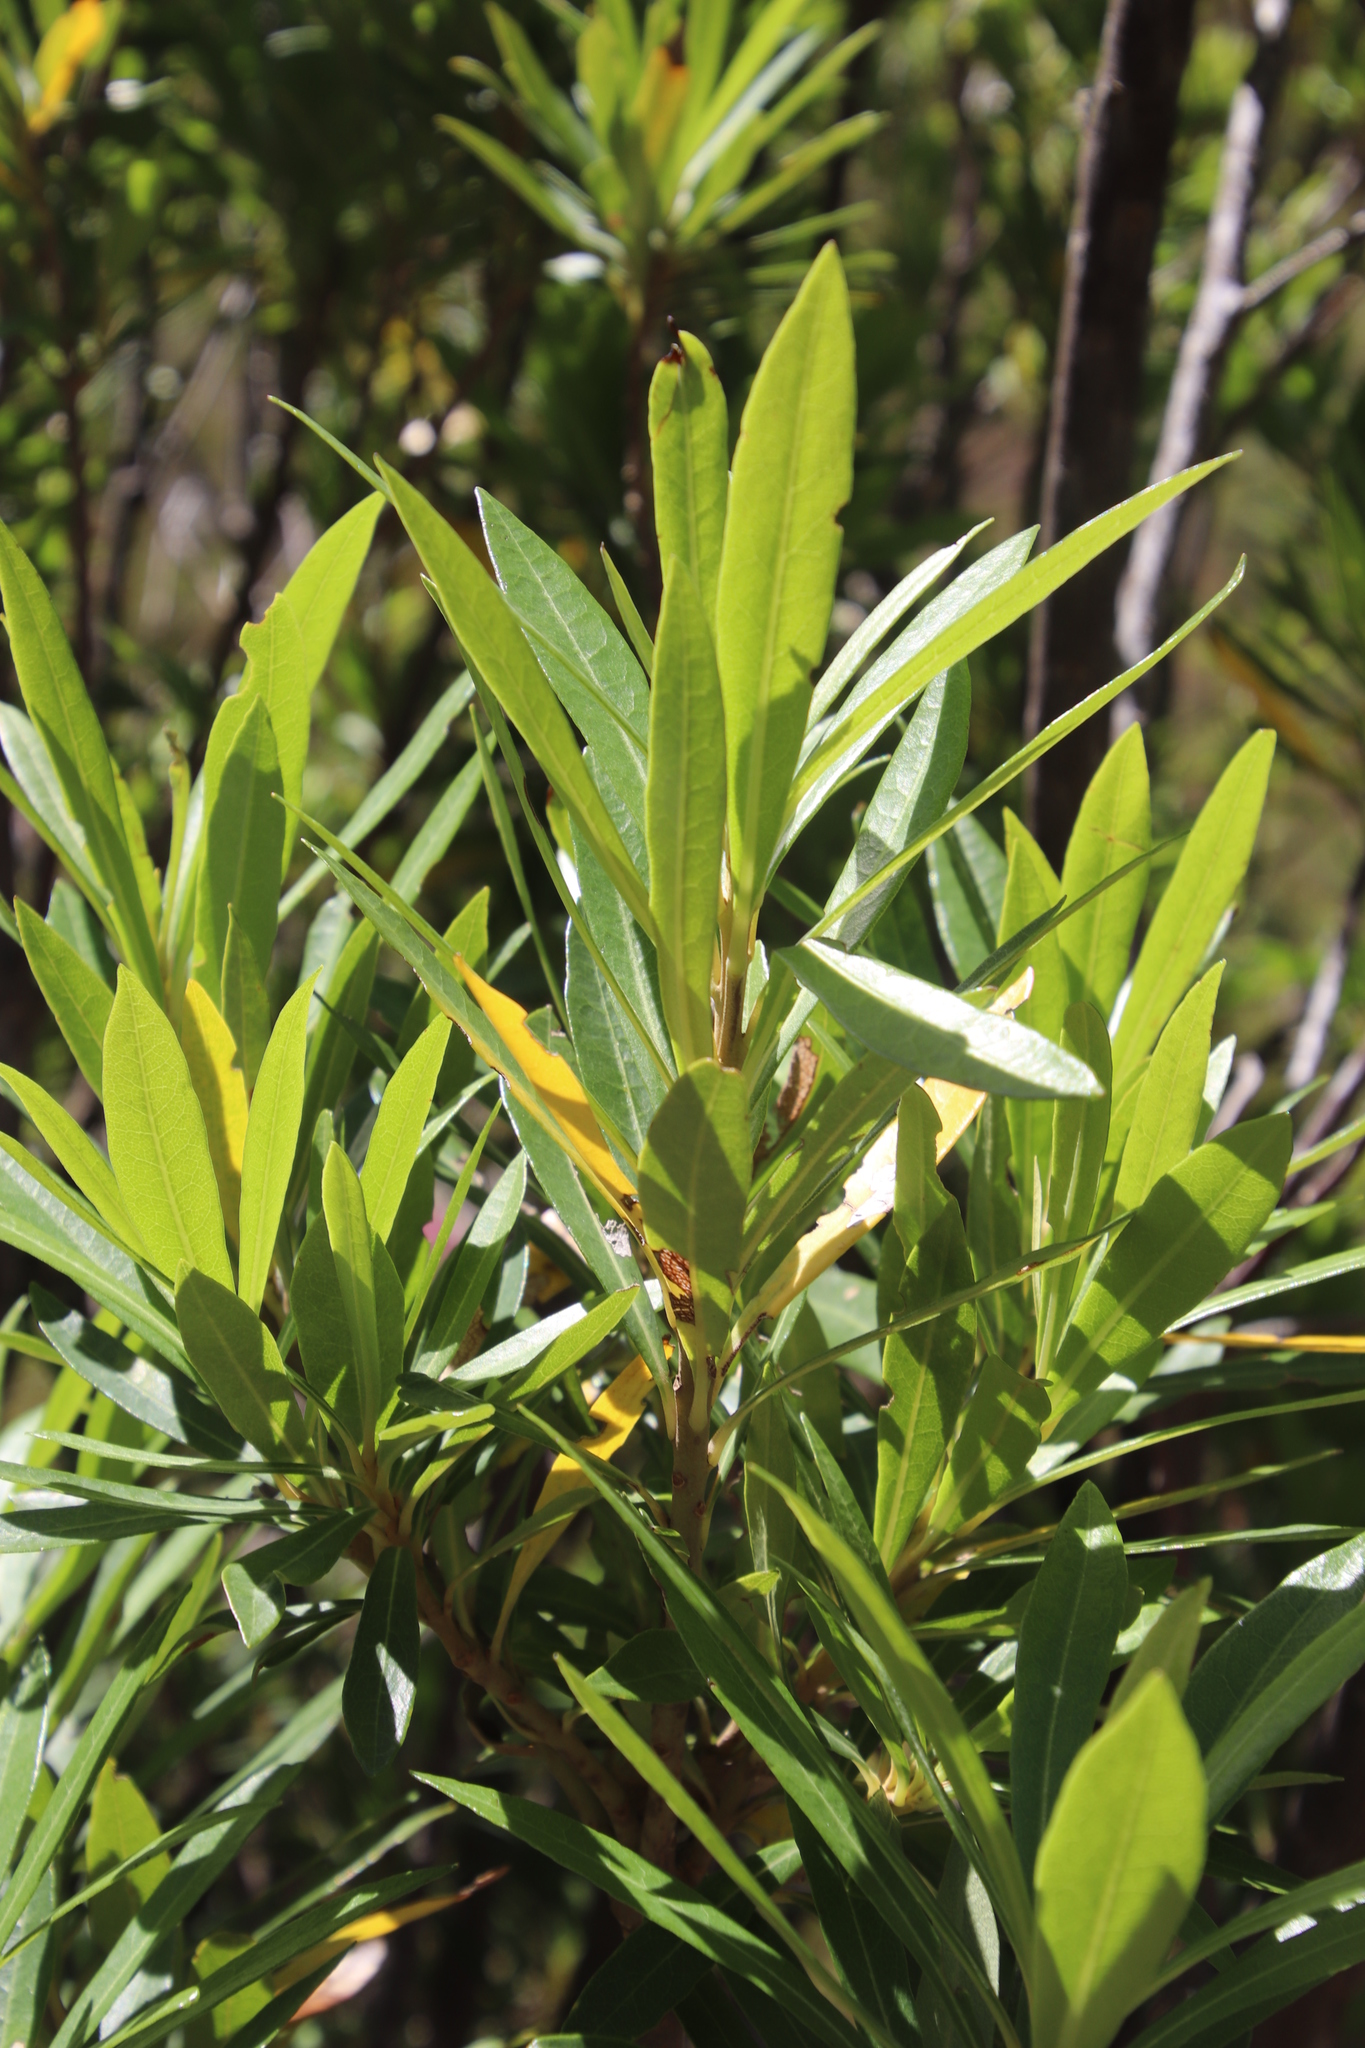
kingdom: Plantae
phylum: Tracheophyta
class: Magnoliopsida
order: Asterales
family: Asteraceae
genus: Brachylaena
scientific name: Brachylaena neriifolia
